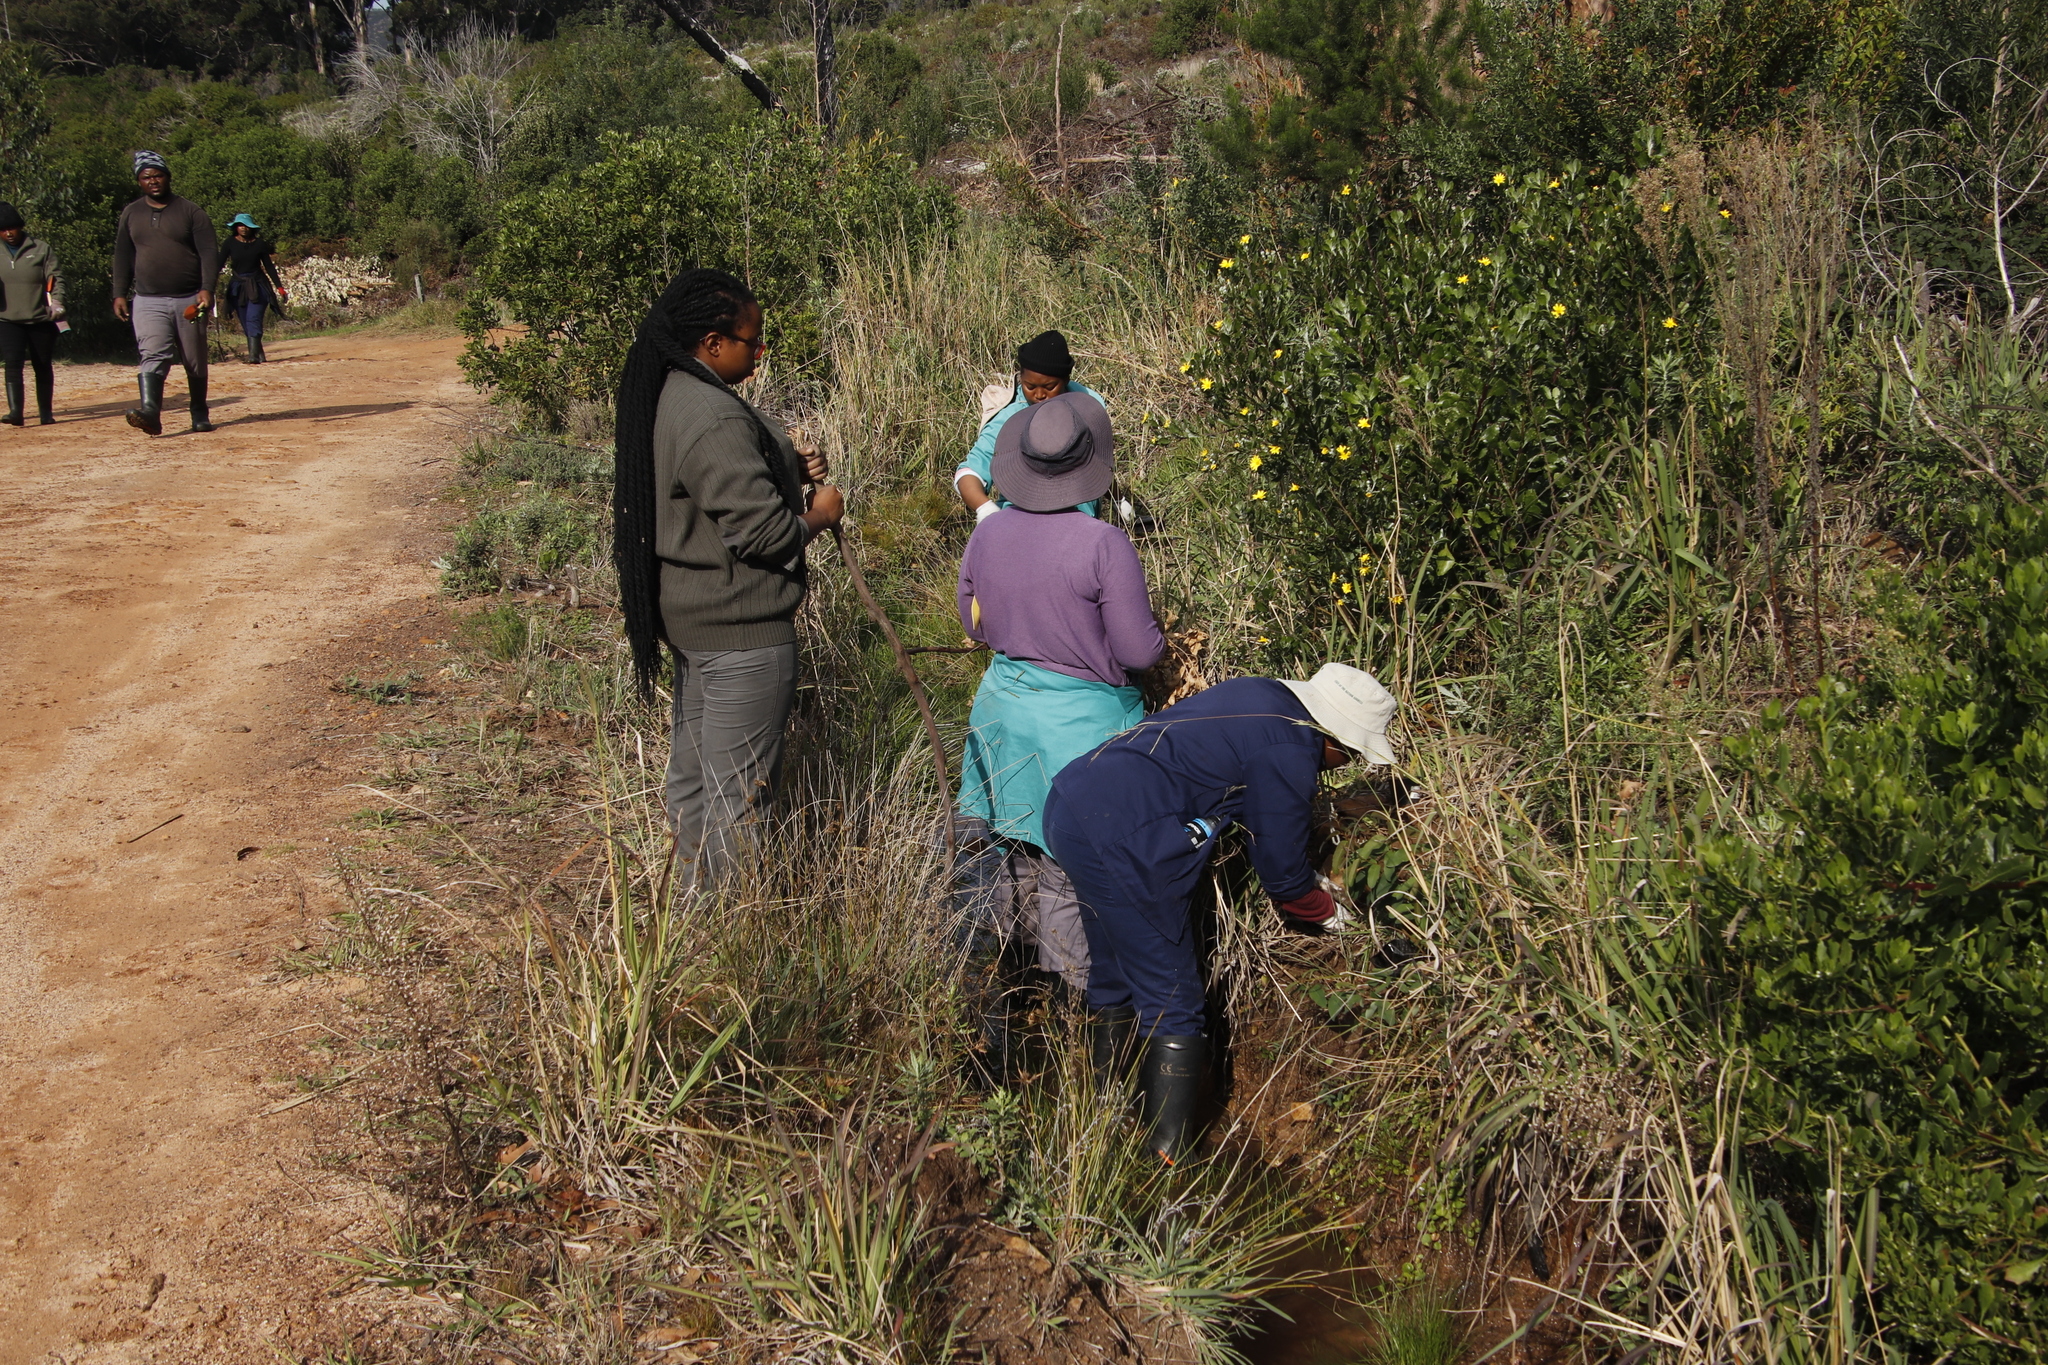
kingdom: Plantae
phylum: Tracheophyta
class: Magnoliopsida
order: Asterales
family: Asteraceae
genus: Osteospermum
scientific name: Osteospermum moniliferum
